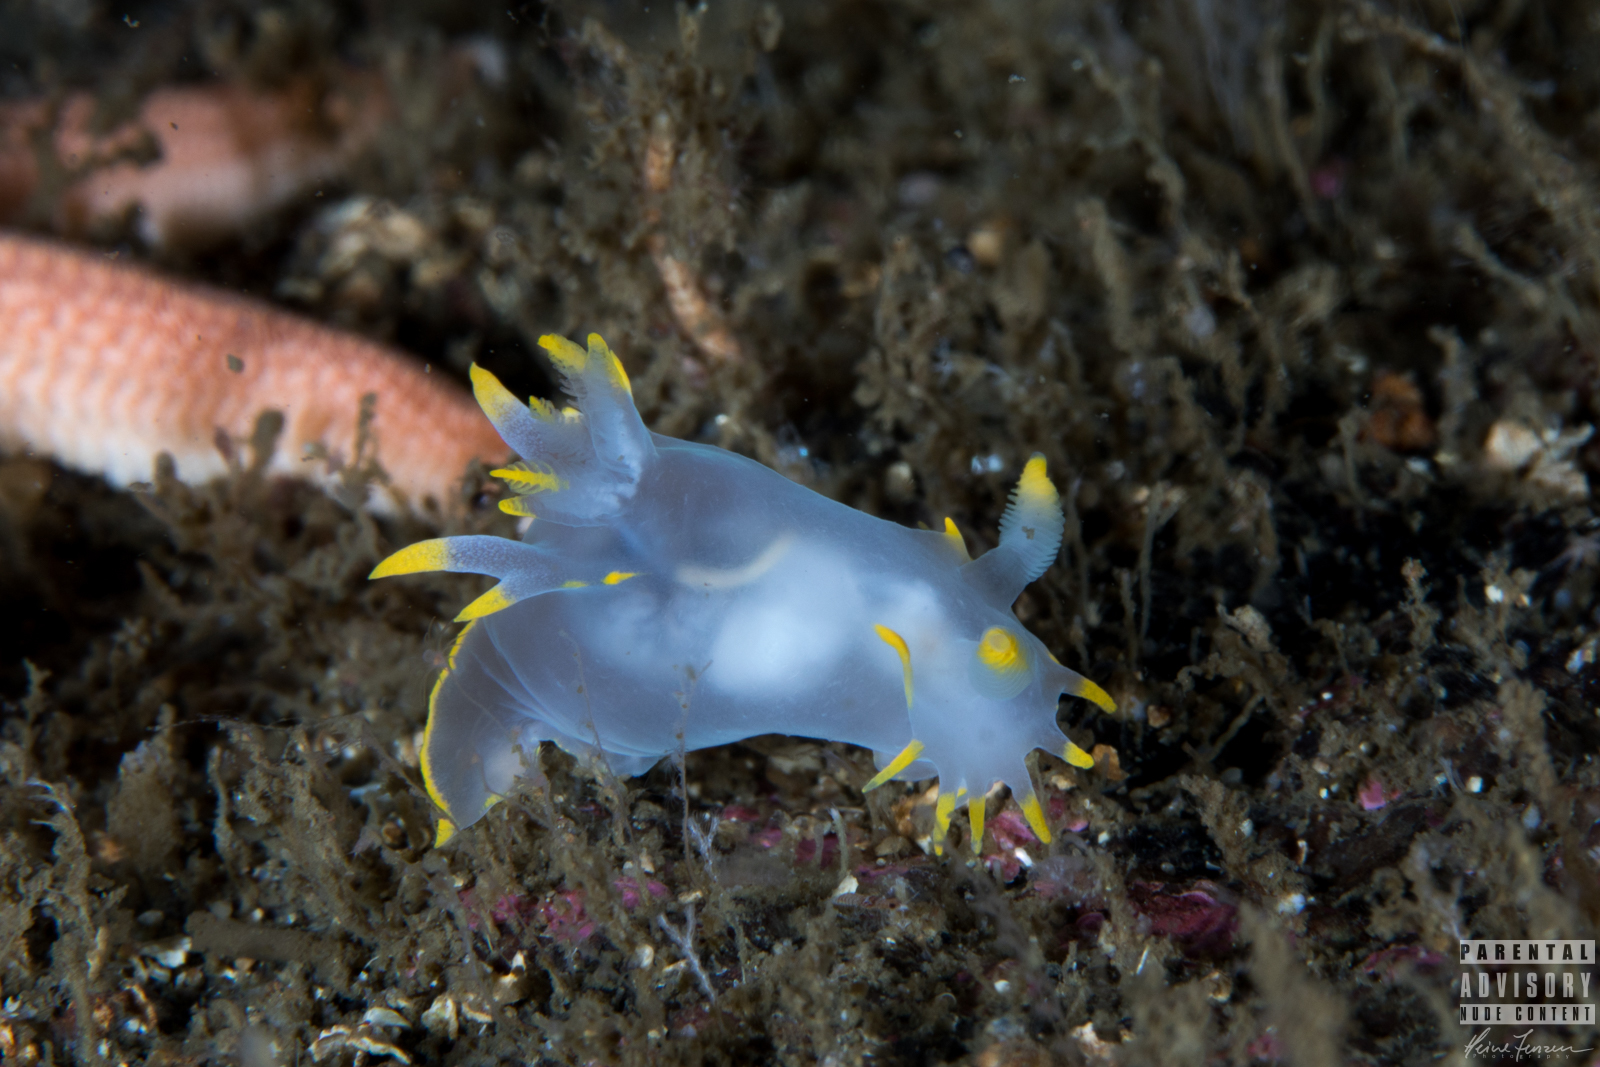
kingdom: Animalia
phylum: Mollusca
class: Gastropoda
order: Nudibranchia
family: Polyceridae
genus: Polycera
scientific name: Polycera faeroensis
